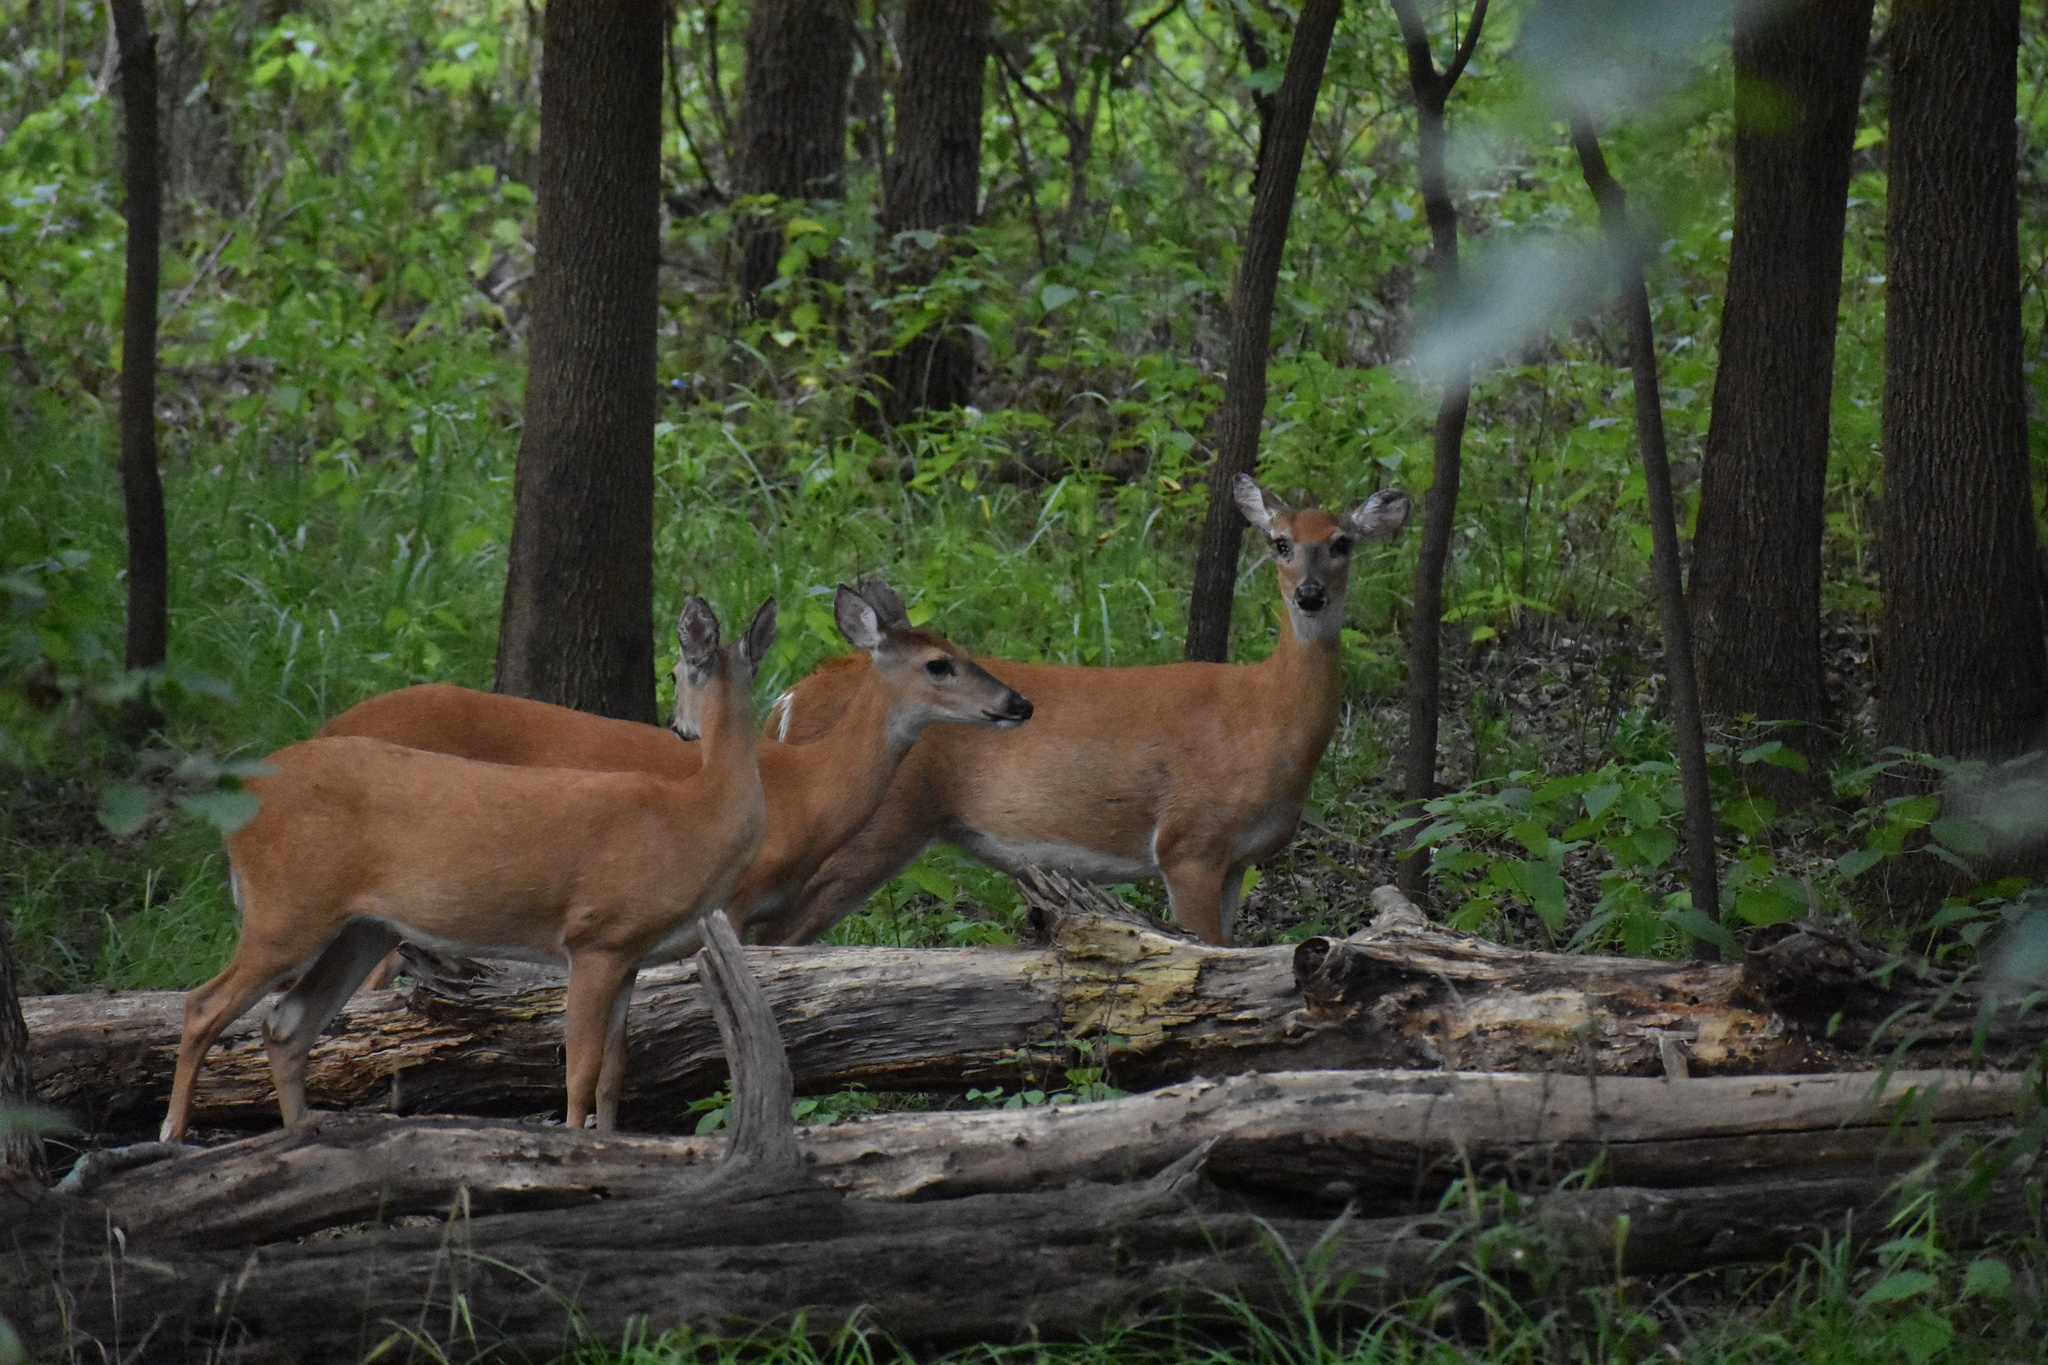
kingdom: Animalia
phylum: Chordata
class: Mammalia
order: Artiodactyla
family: Cervidae
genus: Odocoileus
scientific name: Odocoileus virginianus
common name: White-tailed deer
